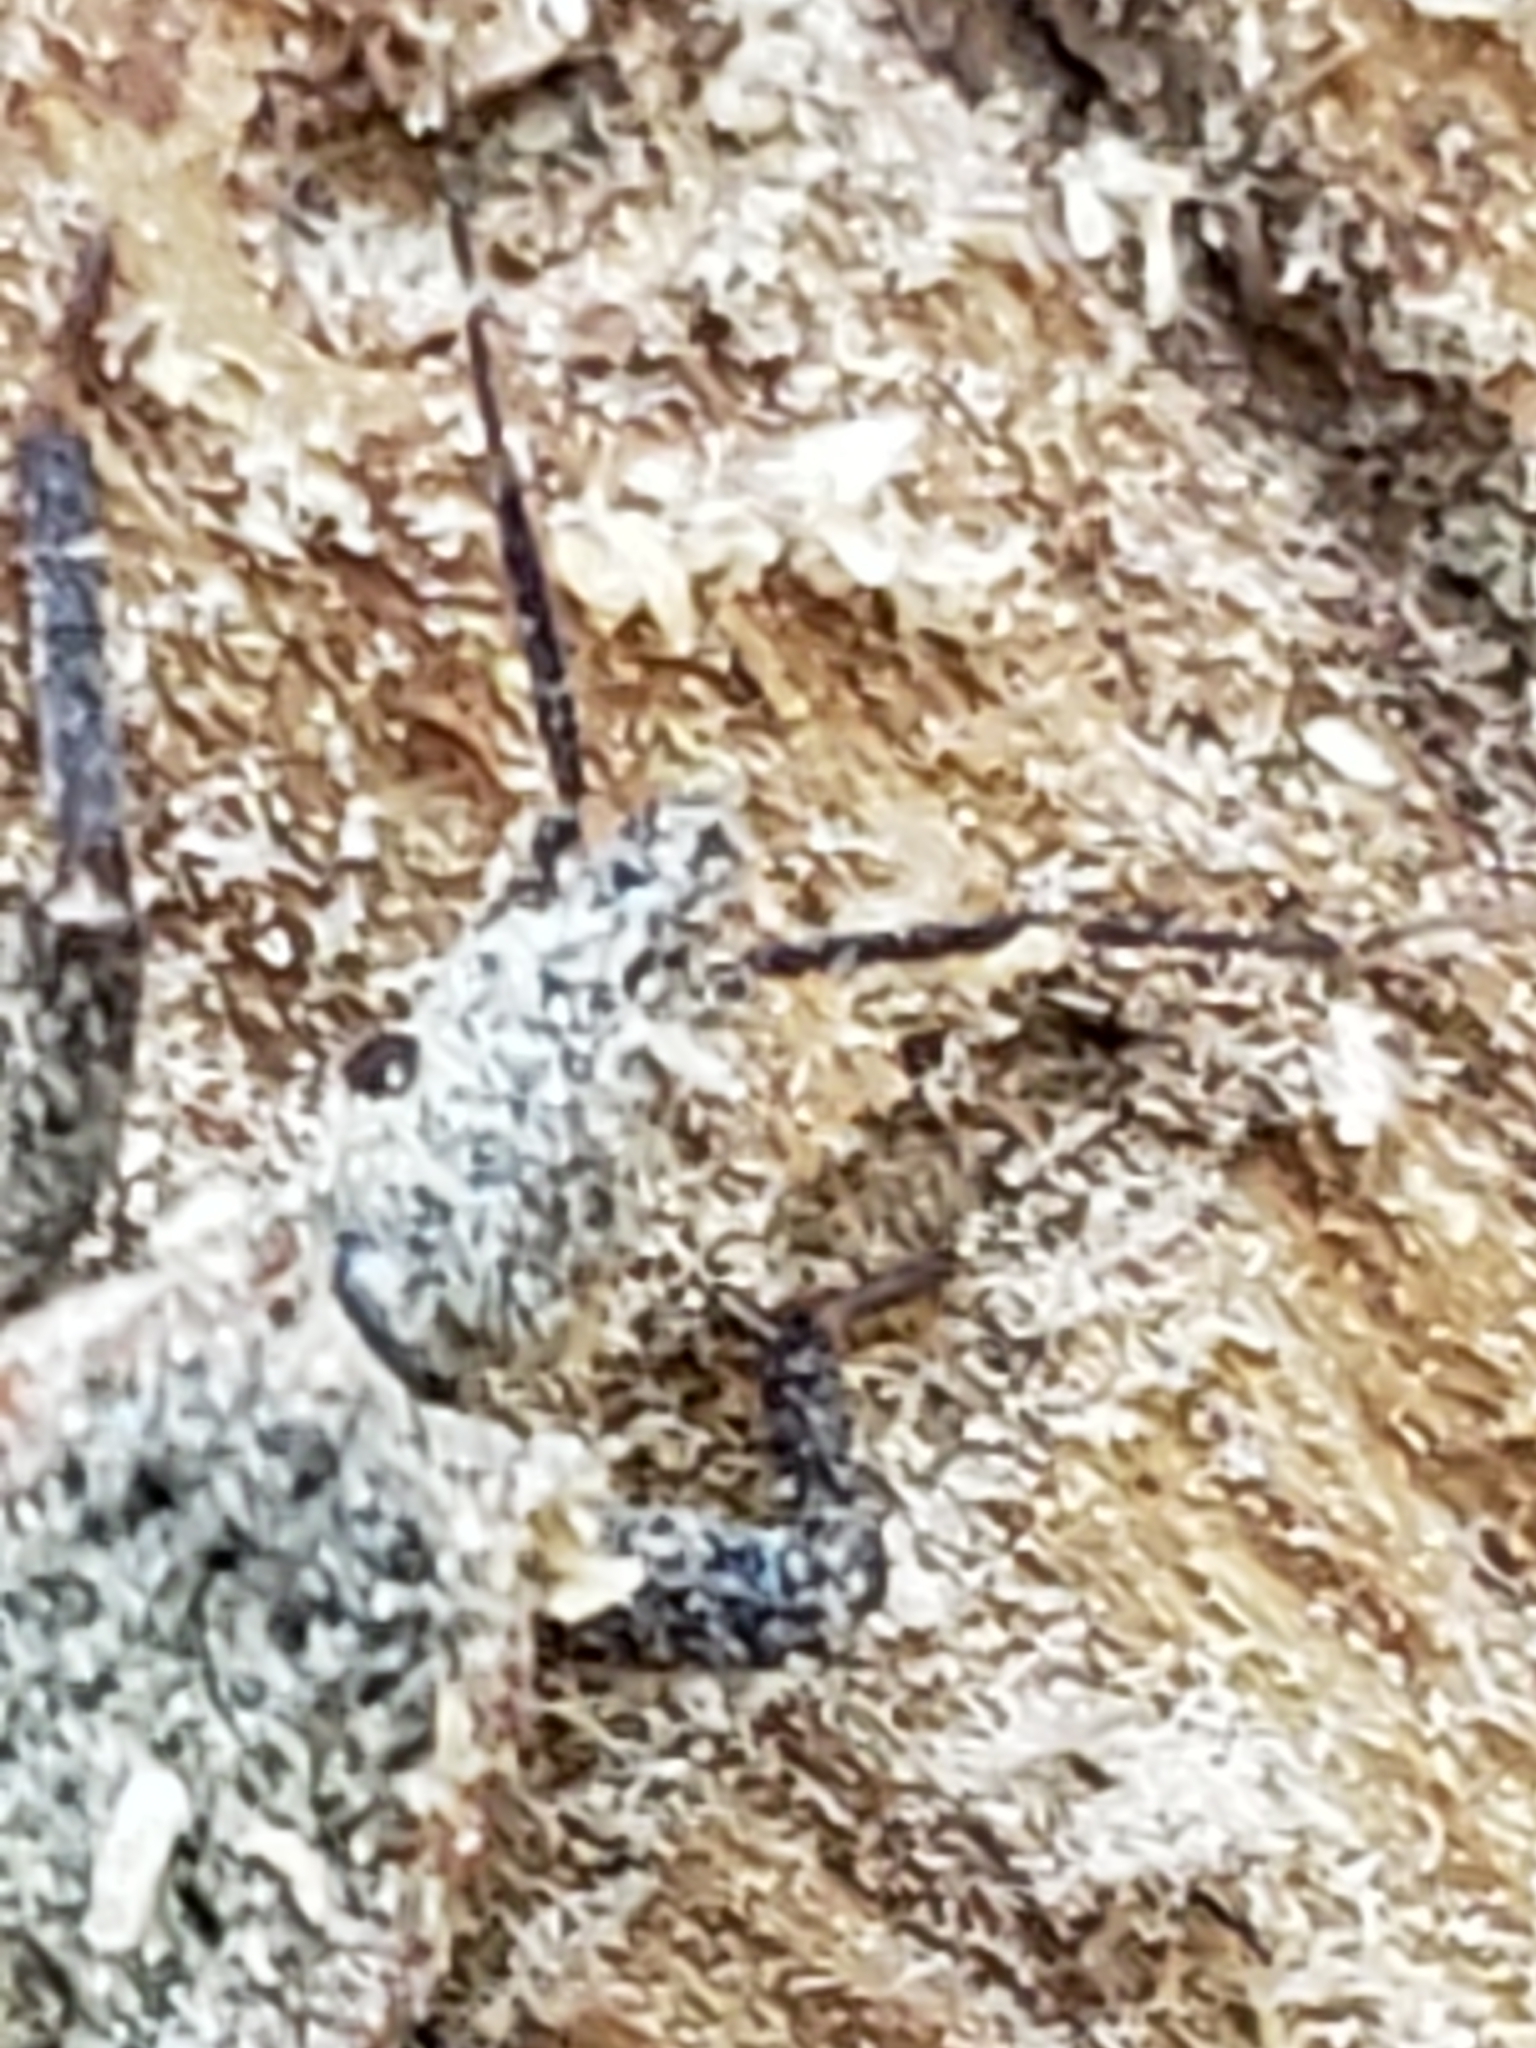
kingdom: Animalia
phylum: Arthropoda
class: Insecta
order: Hemiptera
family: Reduviidae
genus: Triatoma
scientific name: Triatoma sanguisuga
